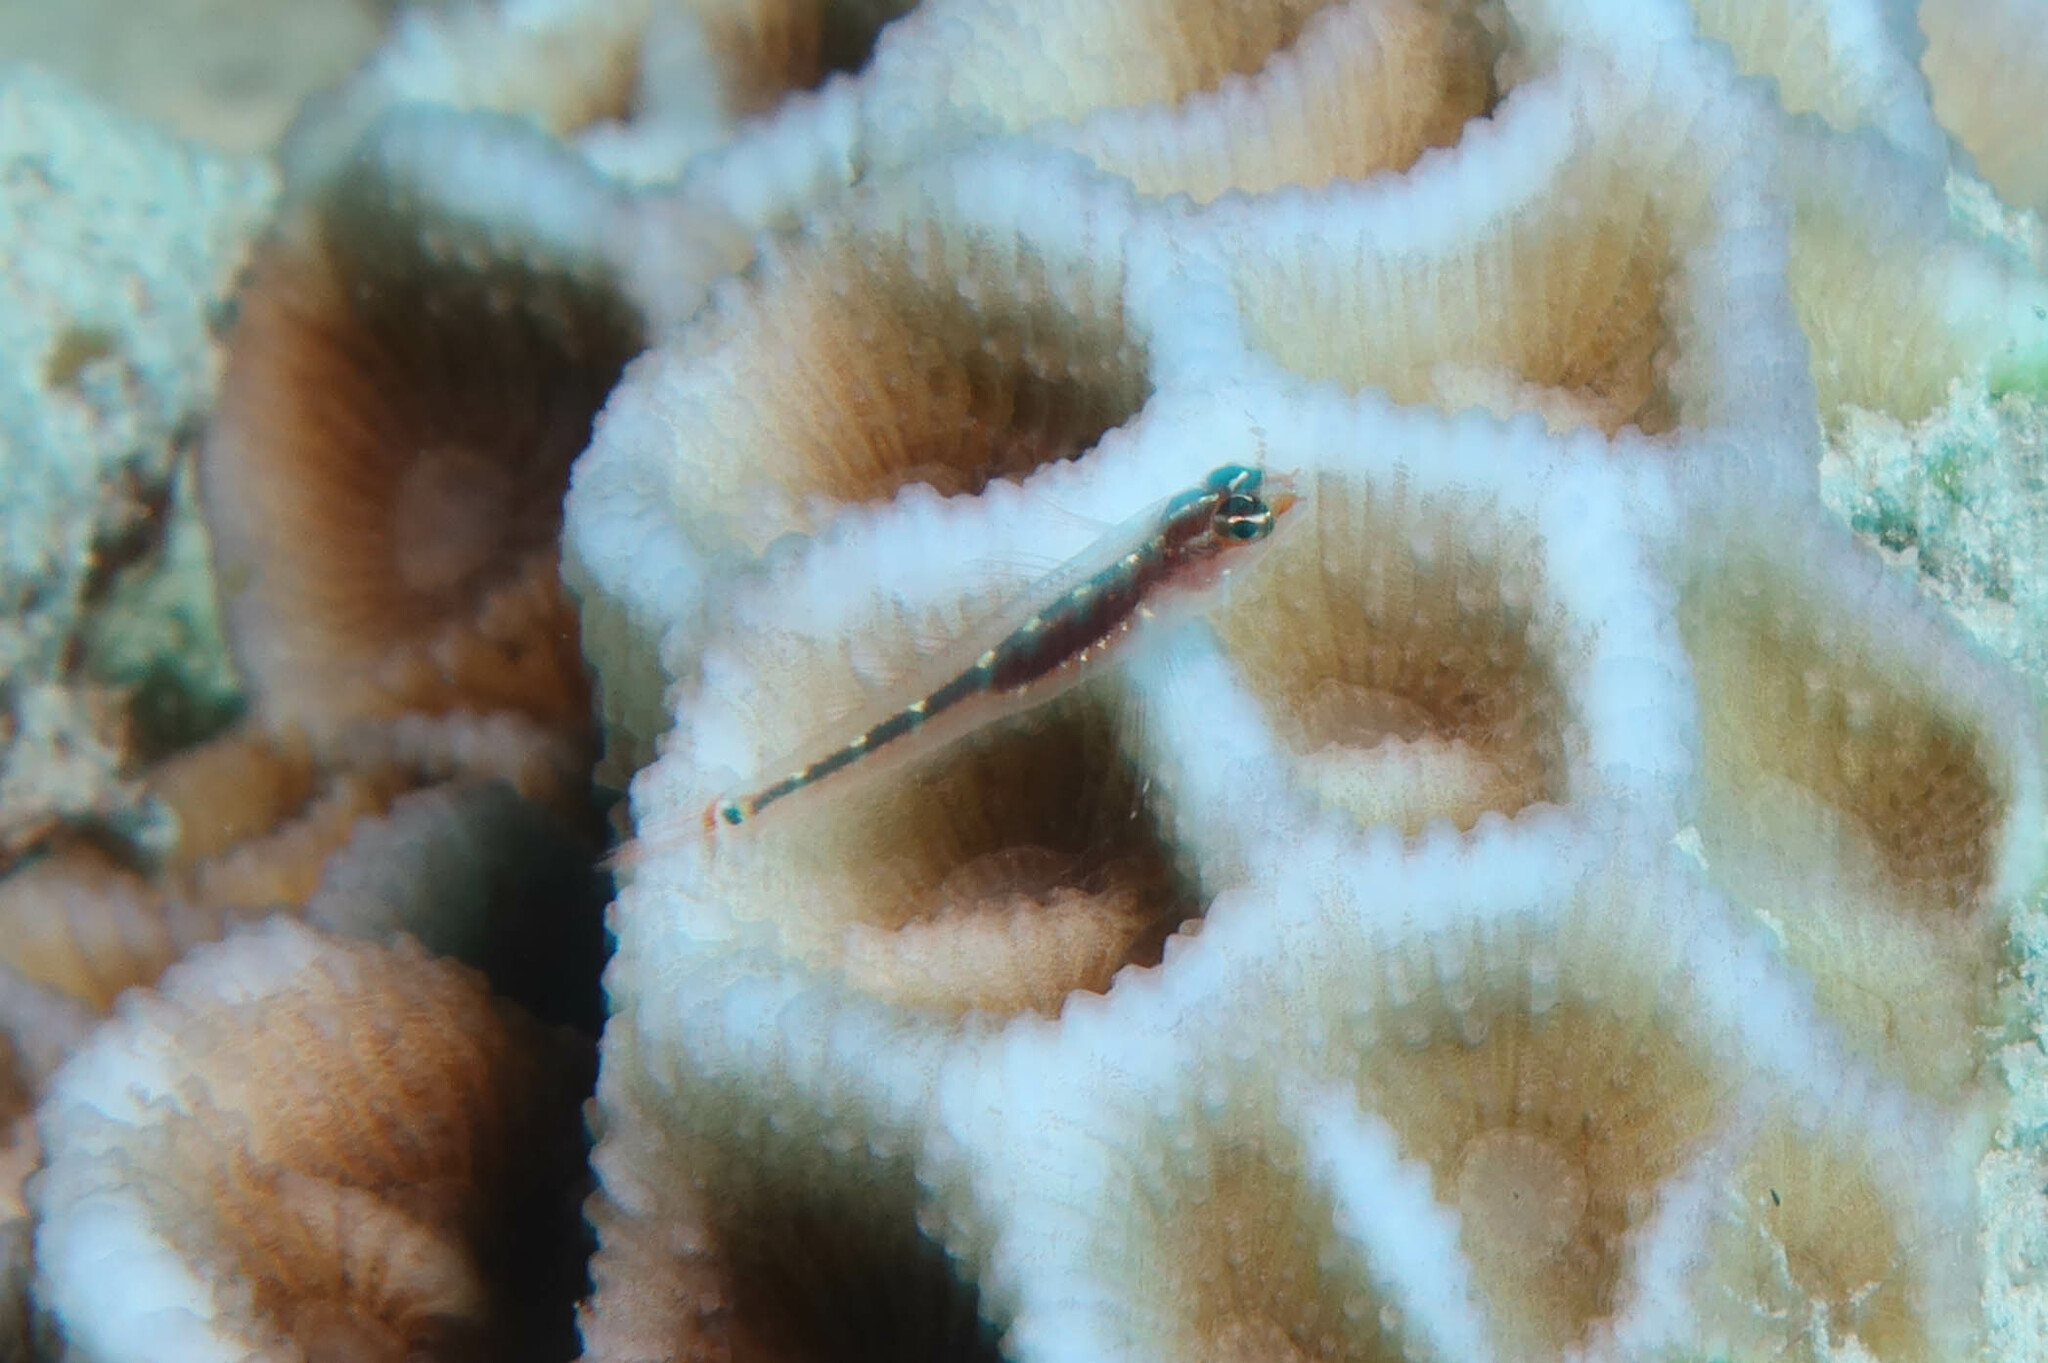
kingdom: Animalia
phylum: Chordata
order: Perciformes
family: Gobiidae
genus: Eviota
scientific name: Eviota punyit
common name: Punyit dwarfgoby
